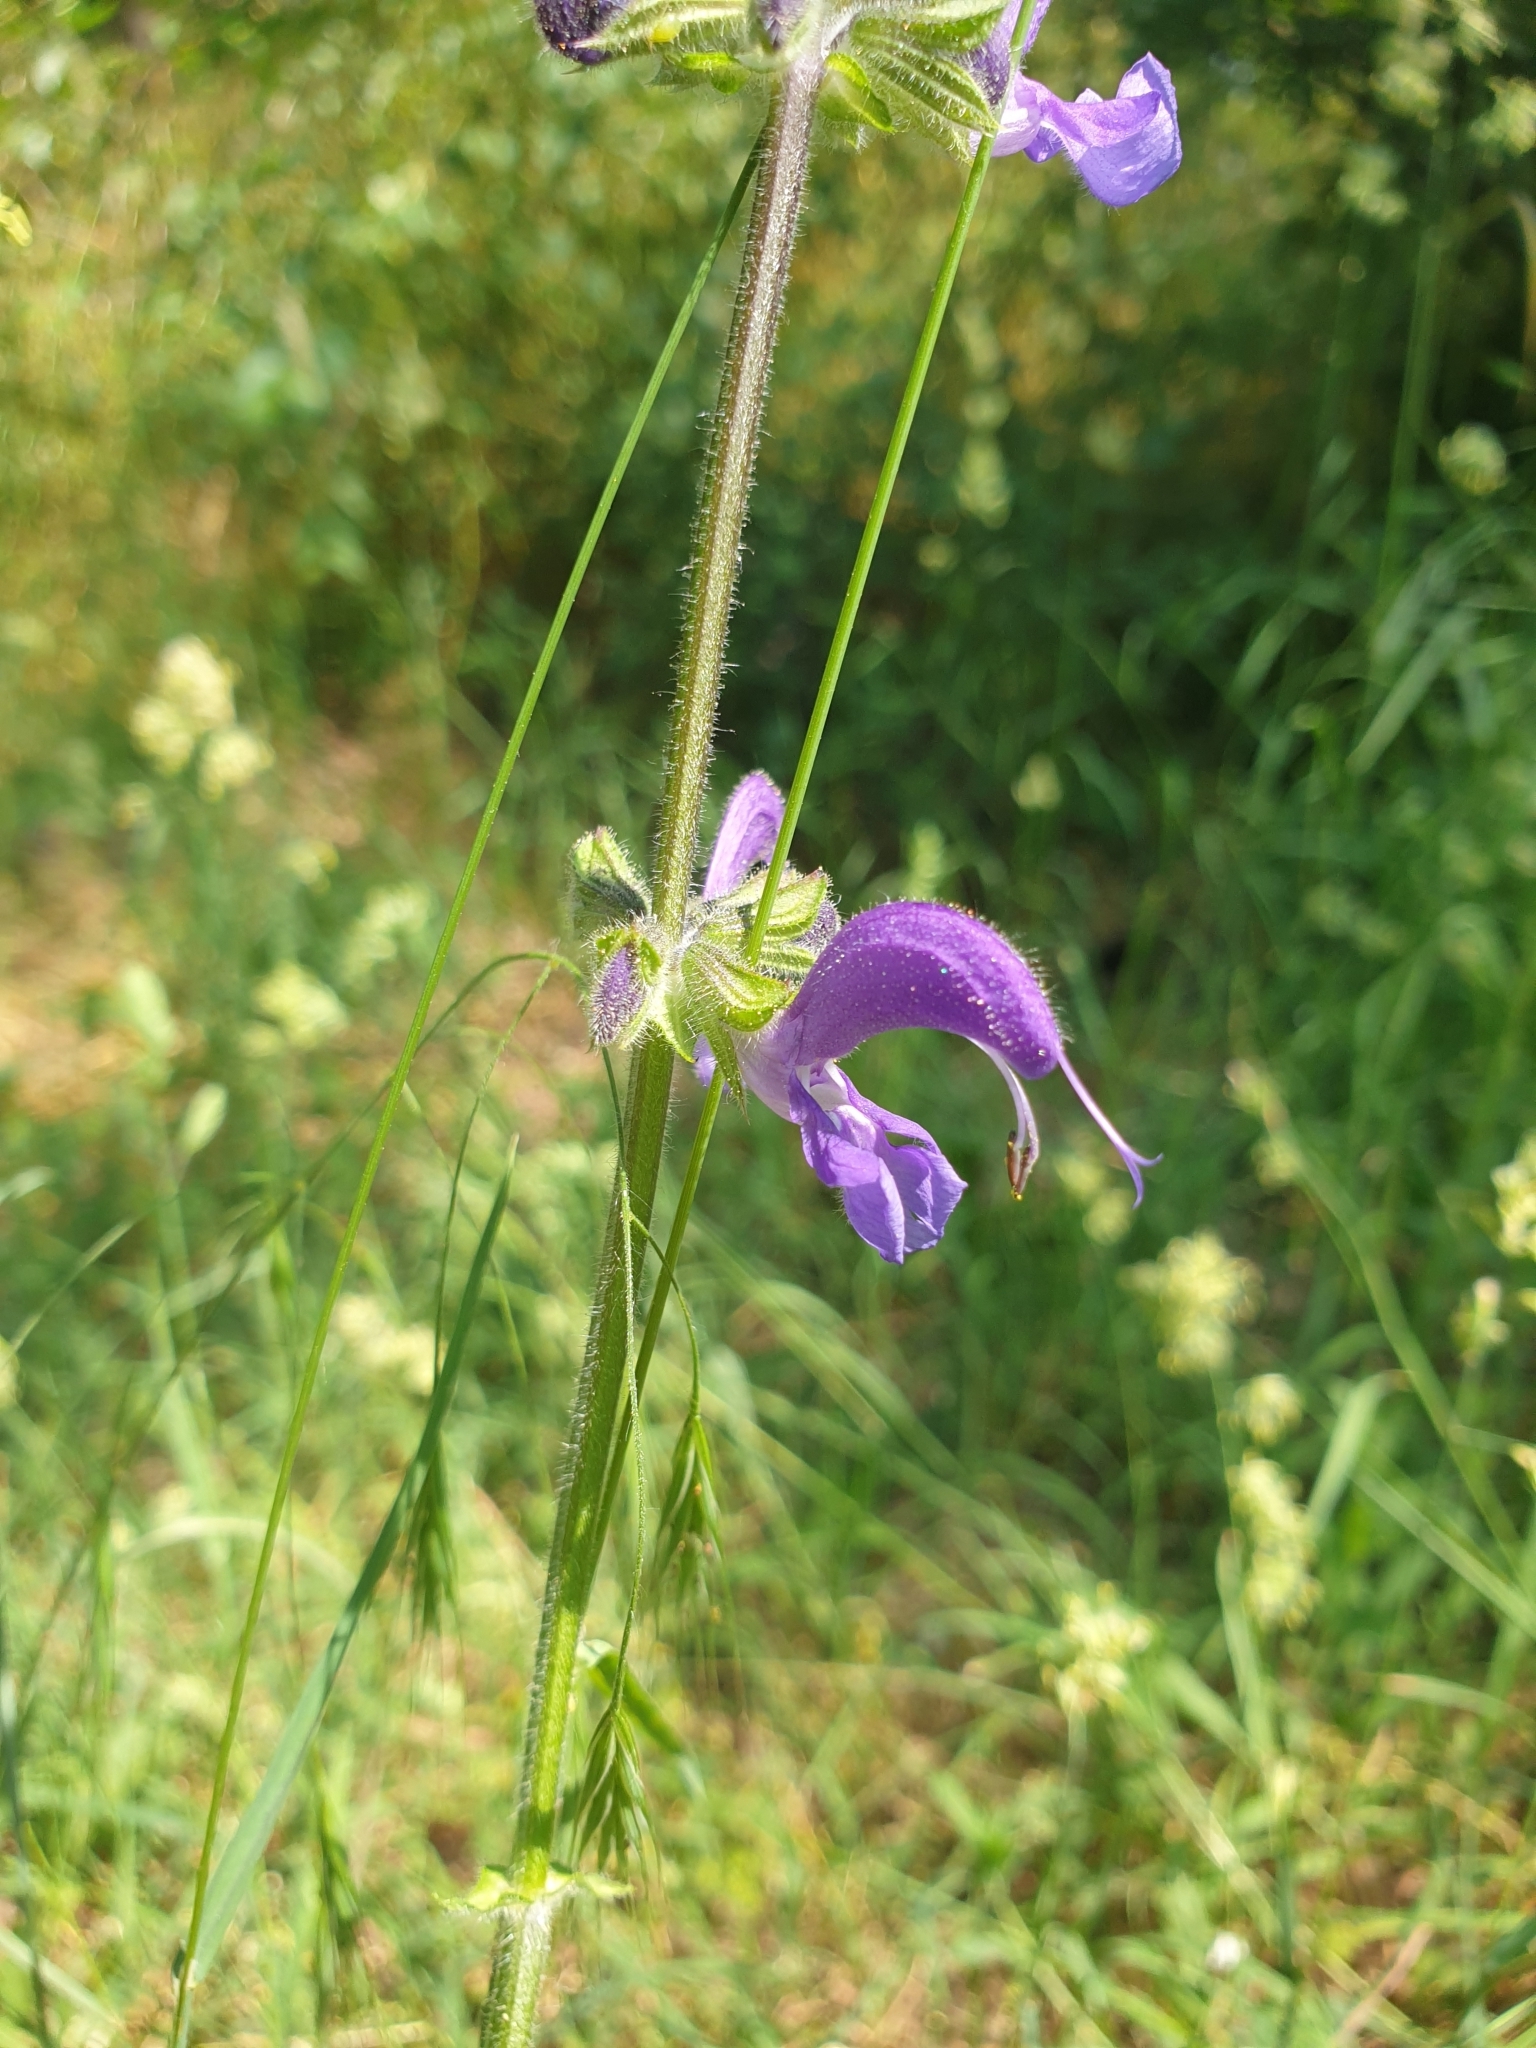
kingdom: Plantae
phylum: Tracheophyta
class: Magnoliopsida
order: Lamiales
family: Lamiaceae
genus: Salvia
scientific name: Salvia pratensis
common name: Meadow sage
